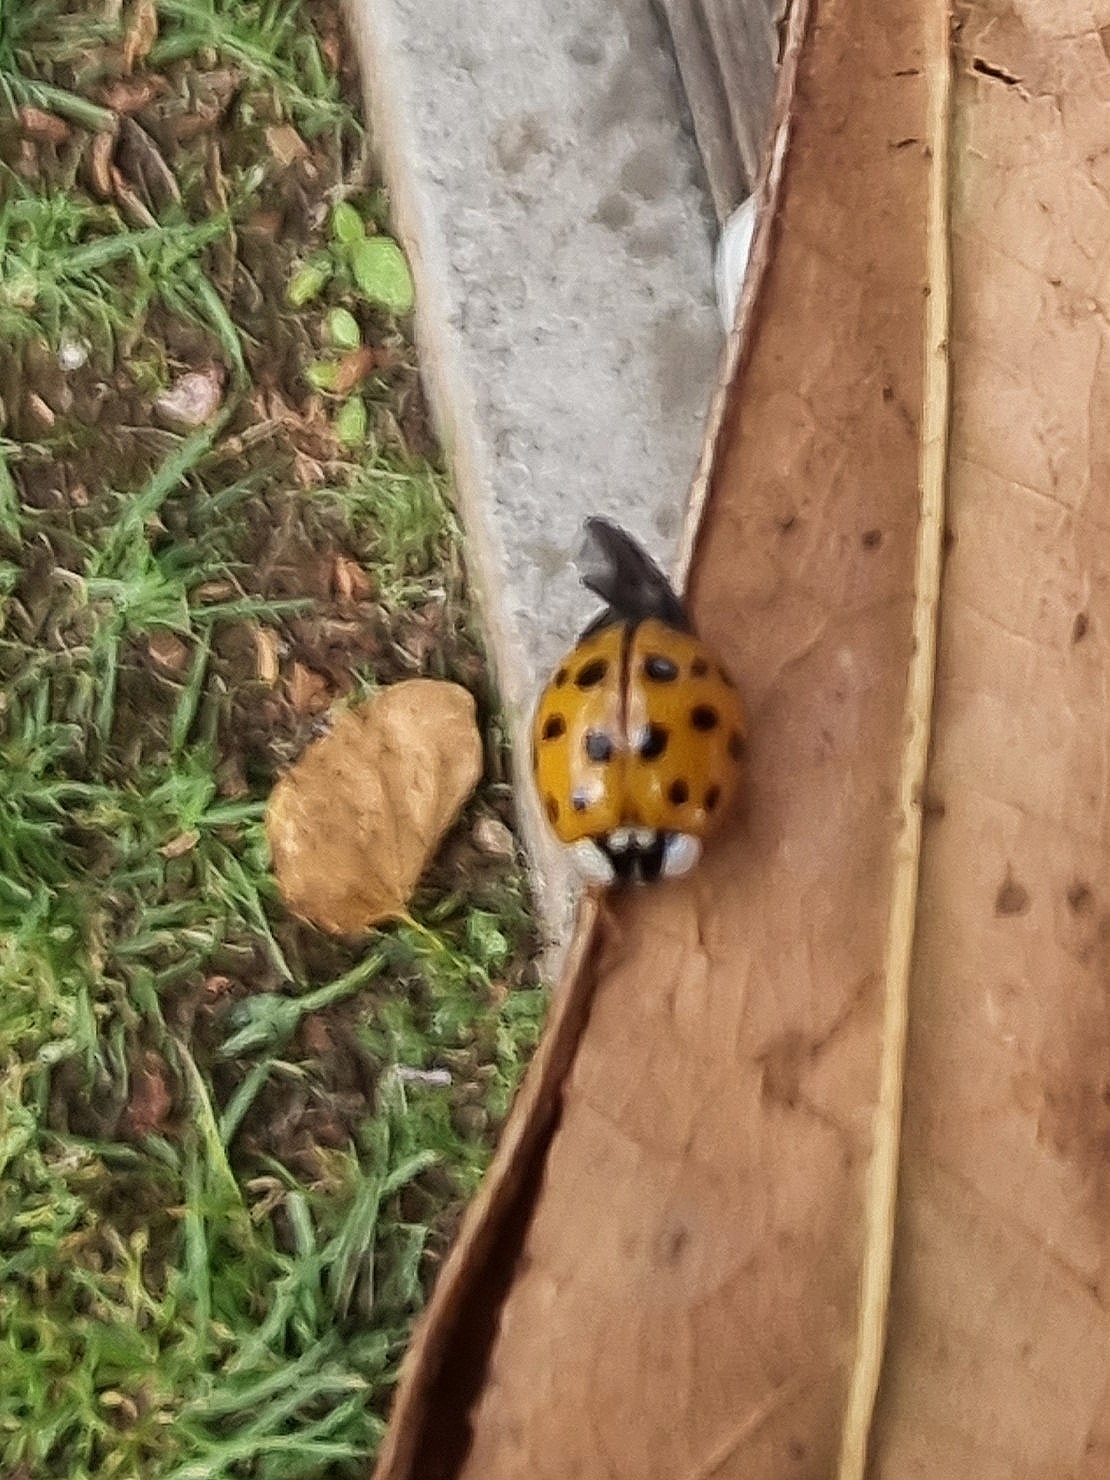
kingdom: Animalia
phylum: Arthropoda
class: Insecta
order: Coleoptera
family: Coccinellidae
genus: Harmonia
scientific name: Harmonia axyridis
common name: Harlequin ladybird
